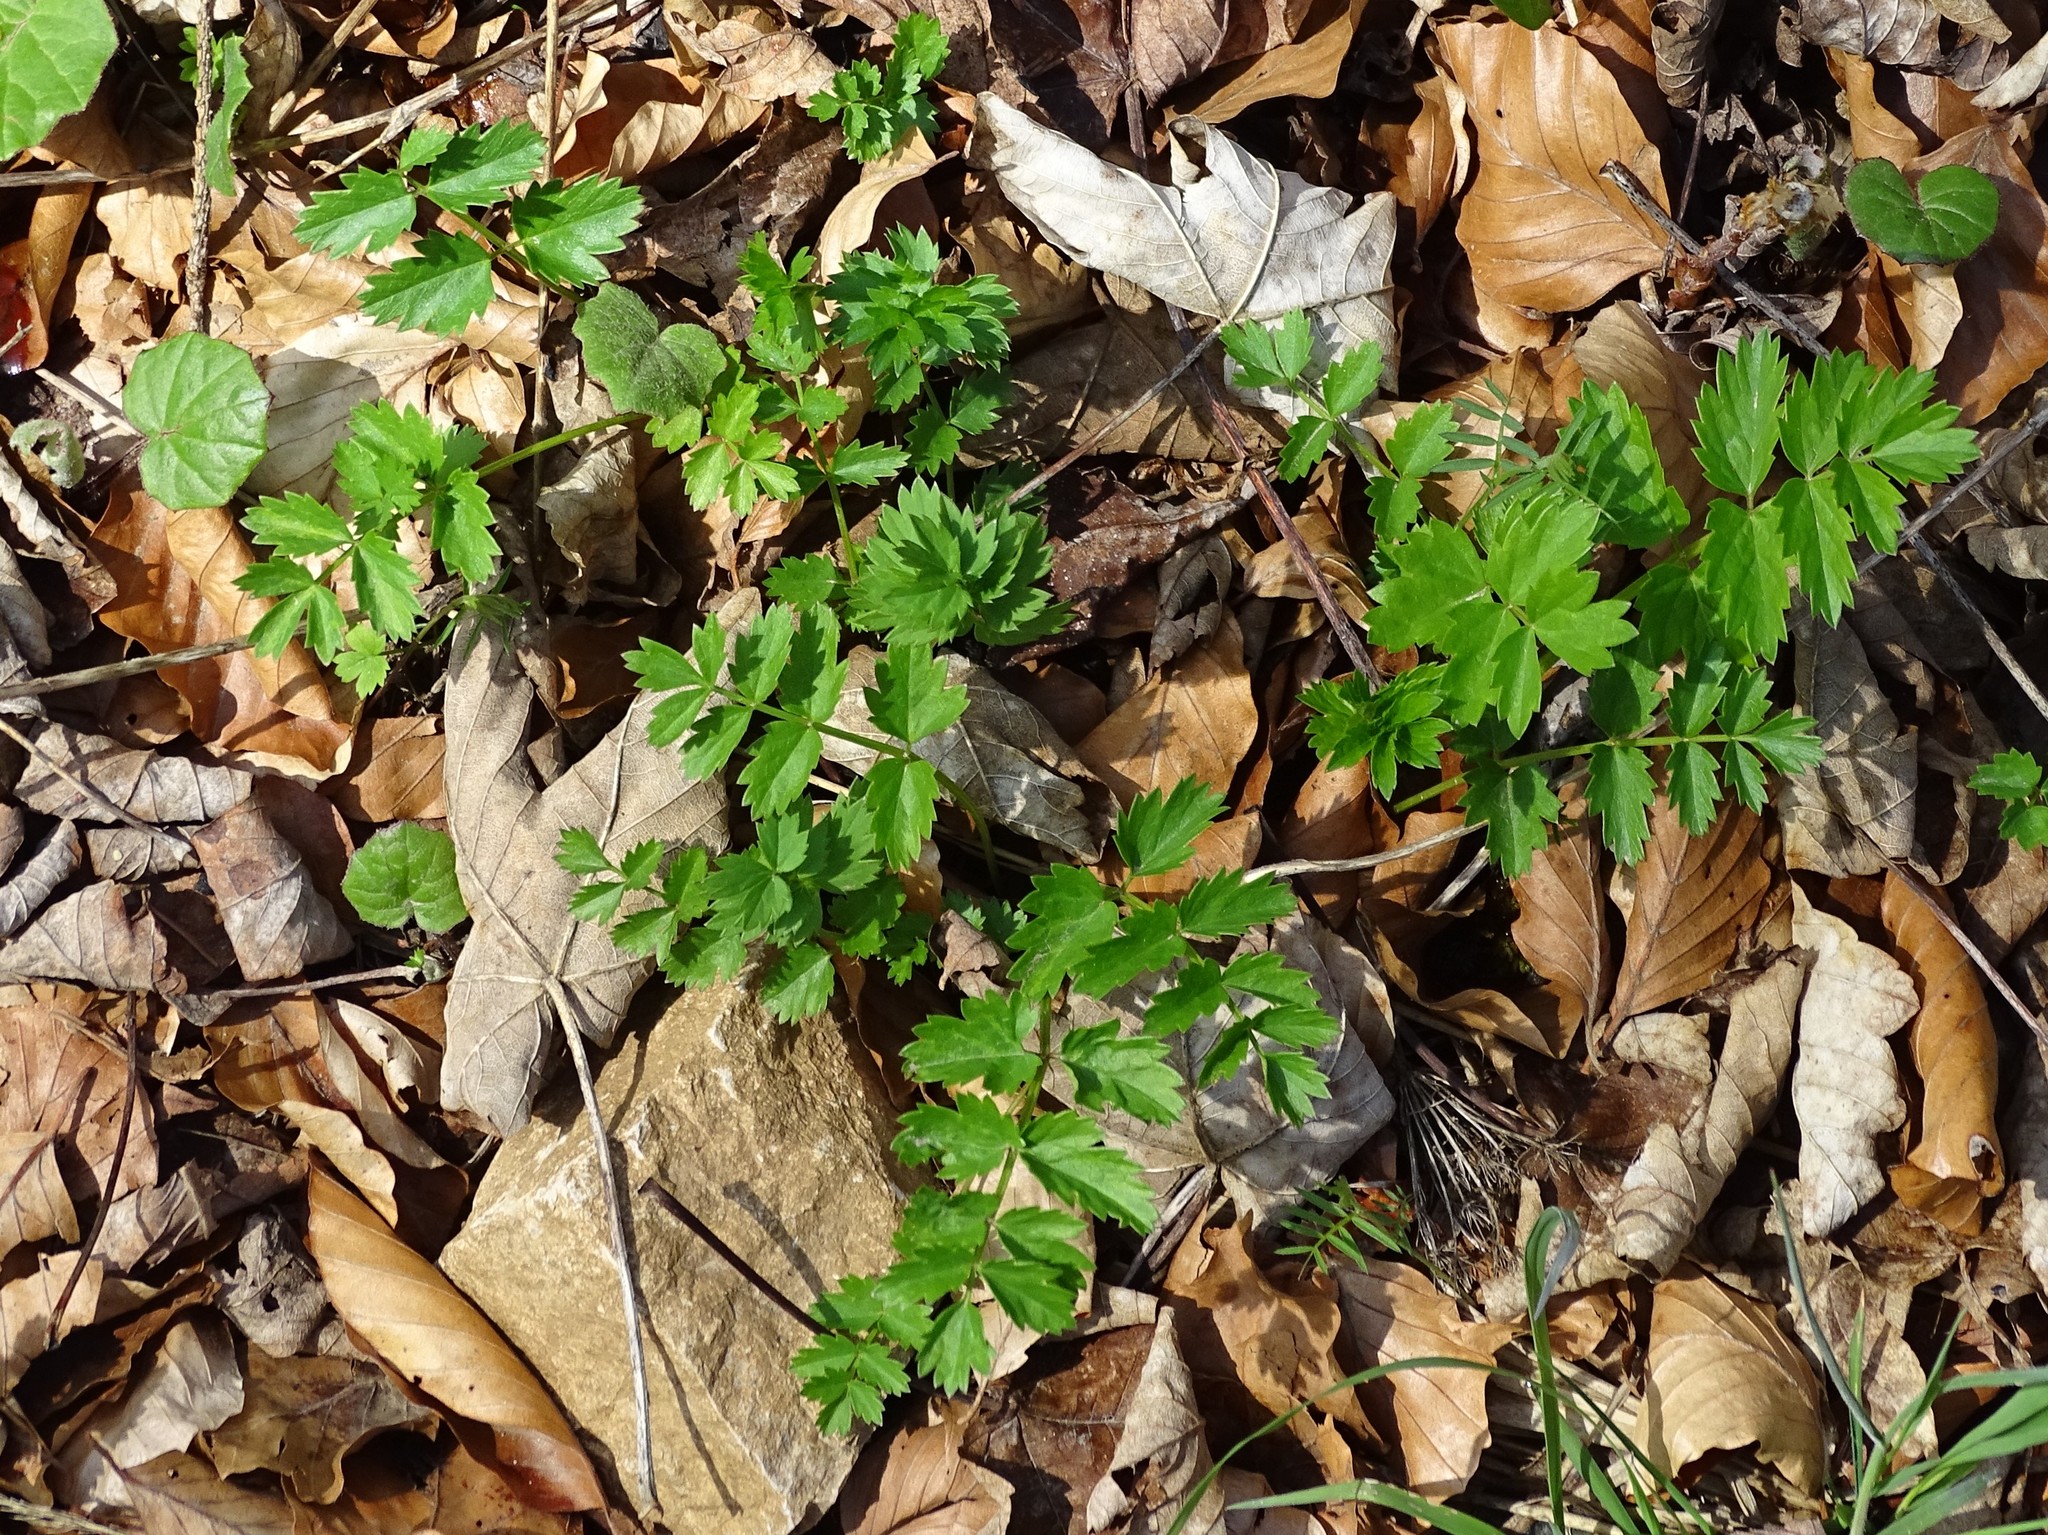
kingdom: Plantae
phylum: Tracheophyta
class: Magnoliopsida
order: Apiales
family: Apiaceae
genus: Pimpinella
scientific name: Pimpinella major
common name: Greater burnet-saxifrage
